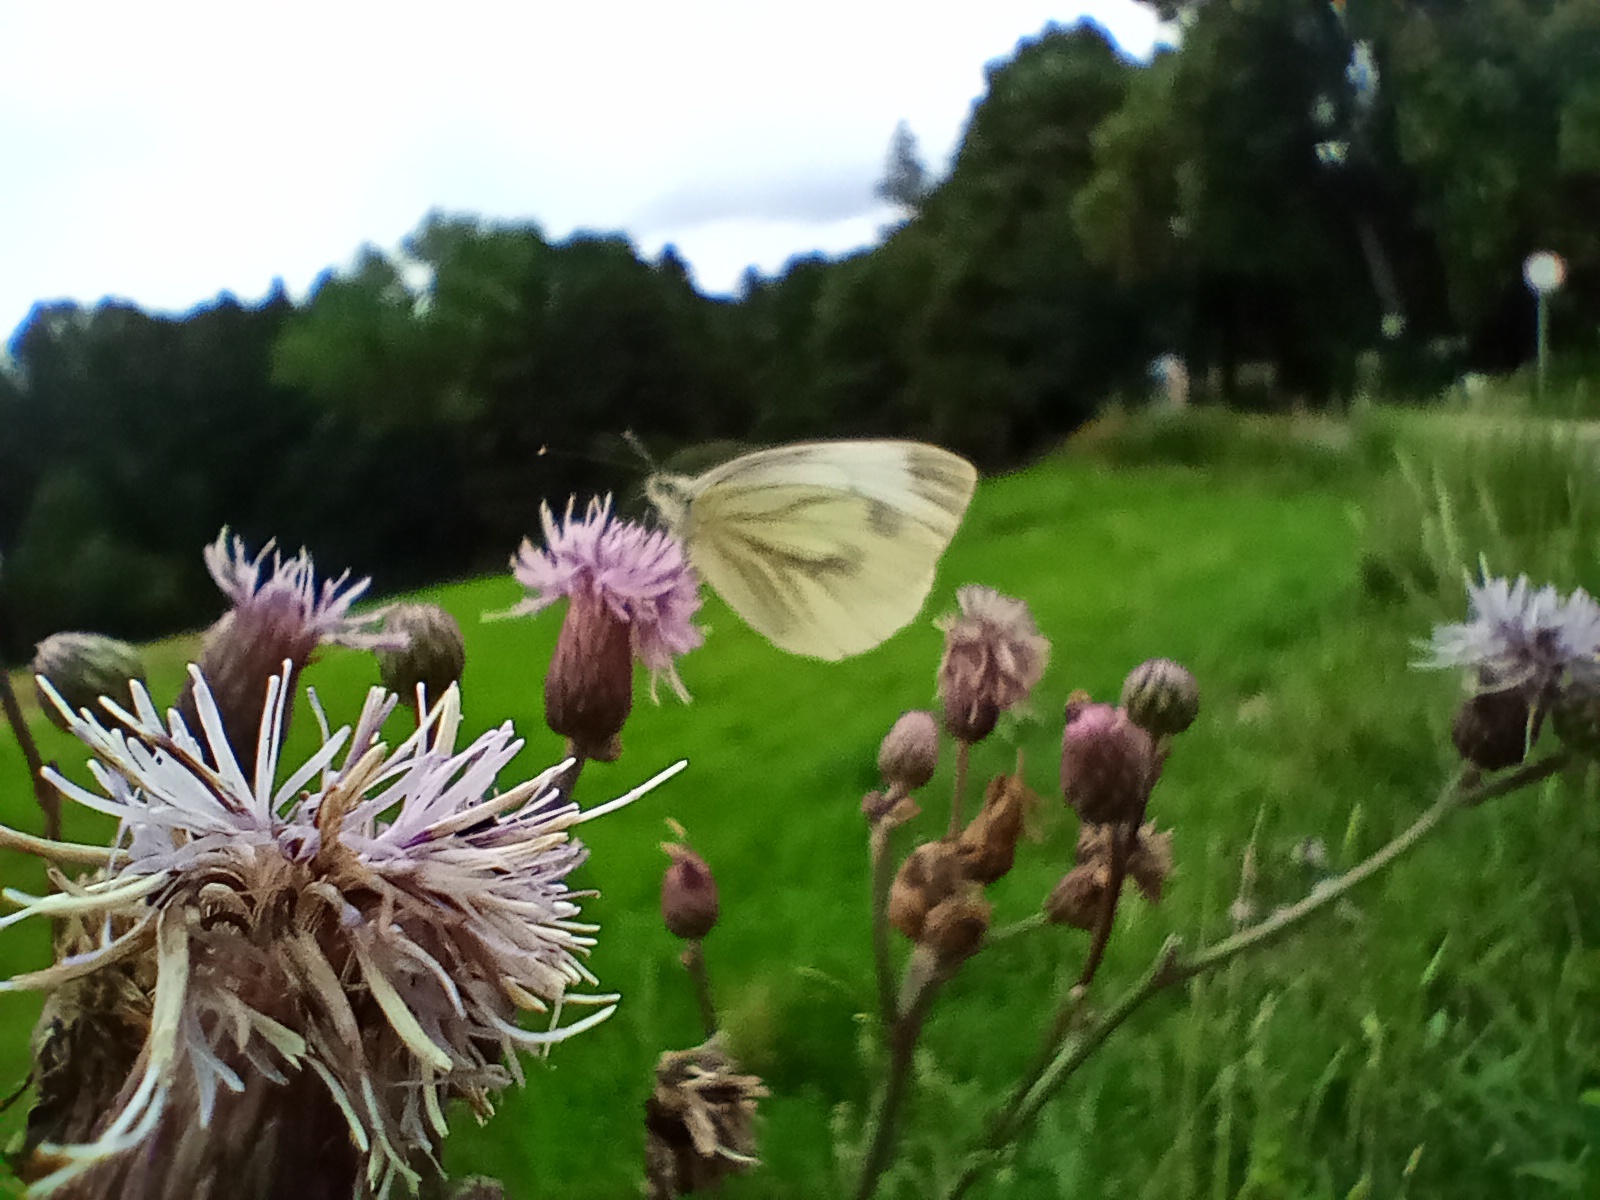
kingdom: Animalia
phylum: Arthropoda
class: Insecta
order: Lepidoptera
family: Pieridae
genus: Pieris
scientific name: Pieris napi
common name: Green-veined white
